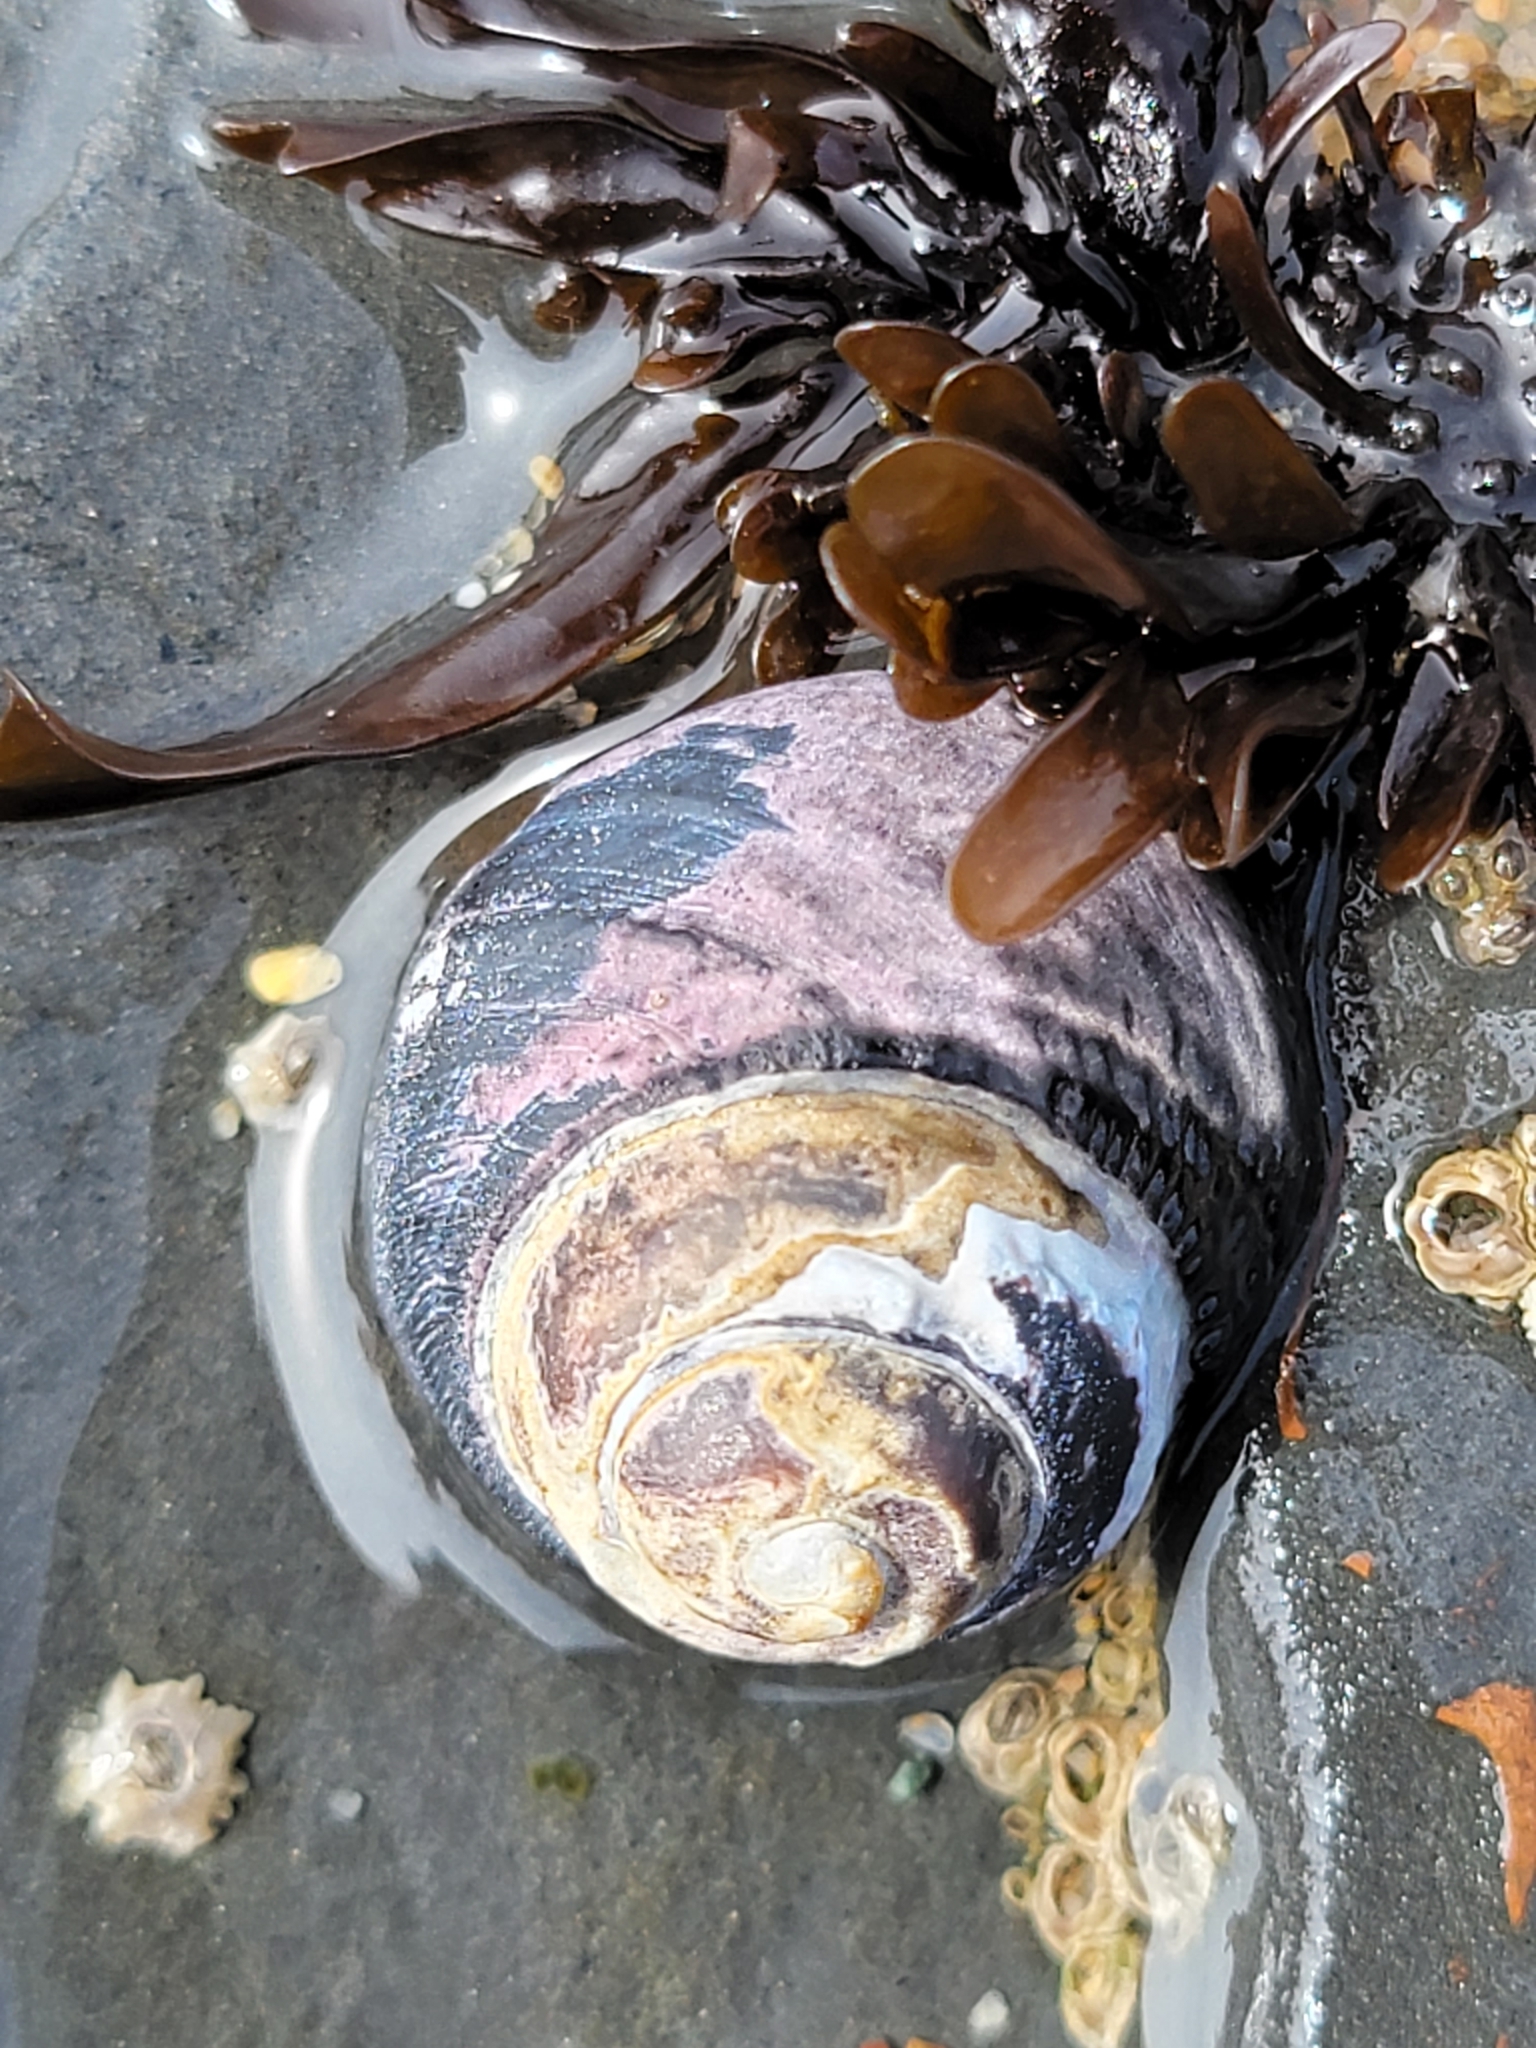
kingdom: Animalia
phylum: Mollusca
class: Gastropoda
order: Trochida
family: Tegulidae
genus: Tegula
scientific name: Tegula funebralis
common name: Black tegula
